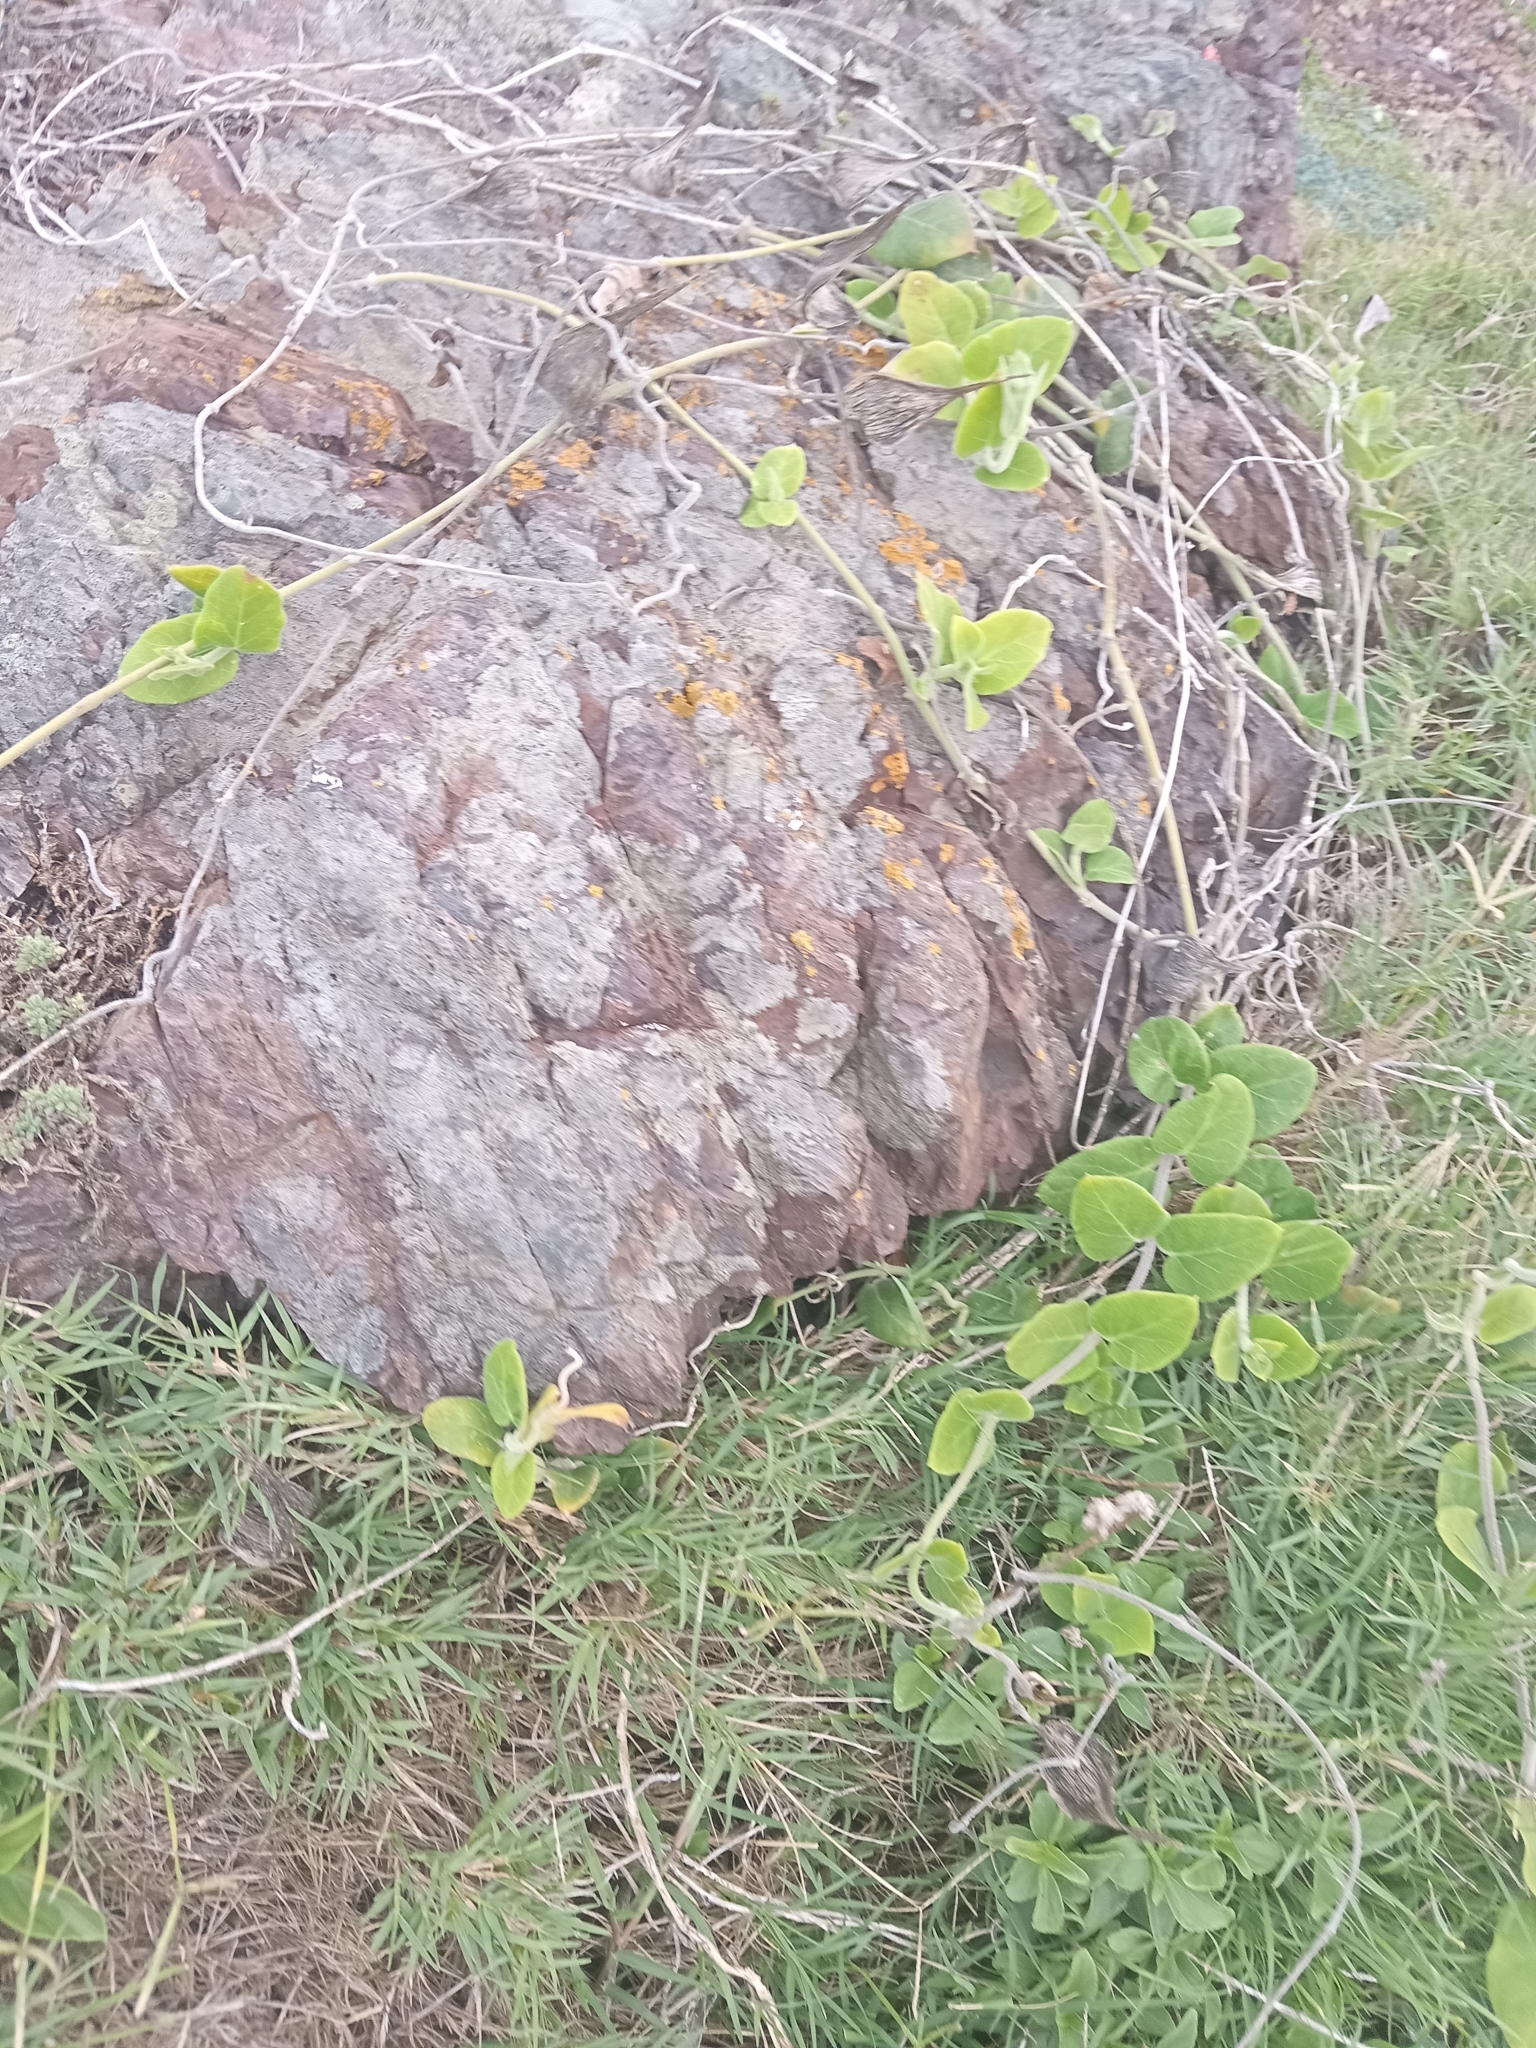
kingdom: Plantae
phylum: Tracheophyta
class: Magnoliopsida
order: Gentianales
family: Apocynaceae
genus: Oxypetalum
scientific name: Oxypetalum tomentosum
